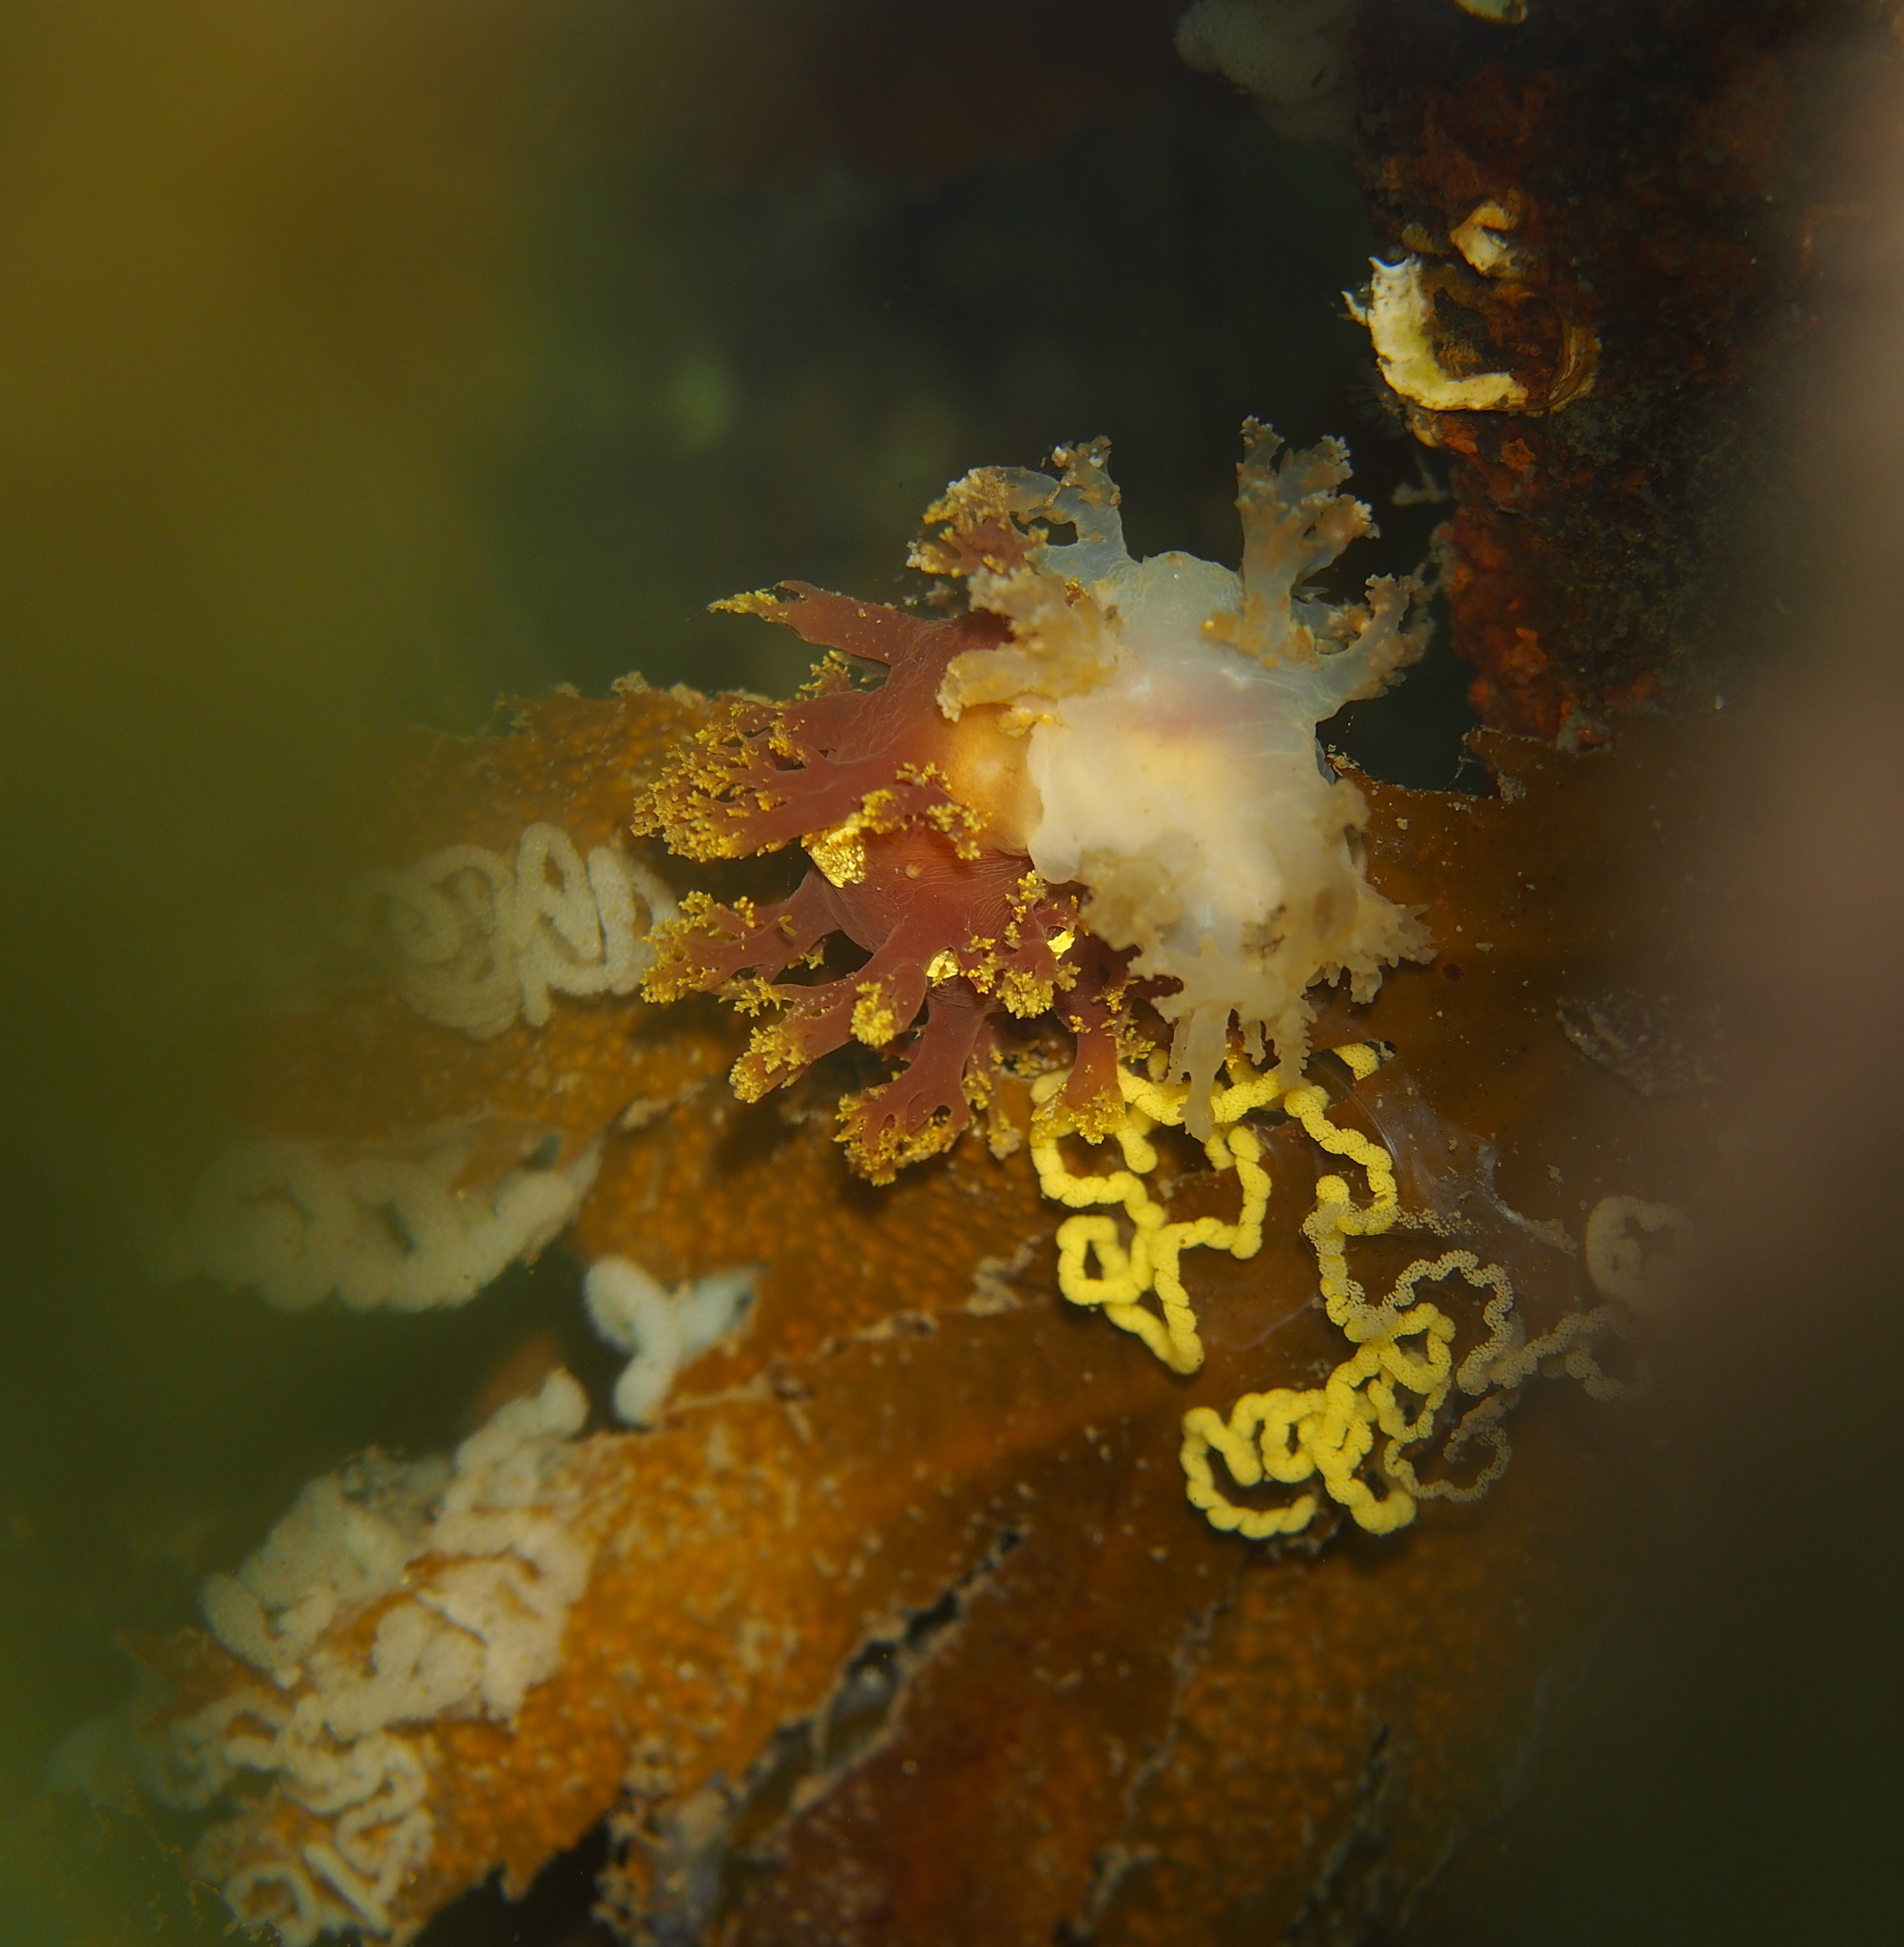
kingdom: Animalia
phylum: Mollusca
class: Gastropoda
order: Nudibranchia
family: Dendronotidae
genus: Dendronotus
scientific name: Dendronotus frondosus
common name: Bushy-backed nudibranch
